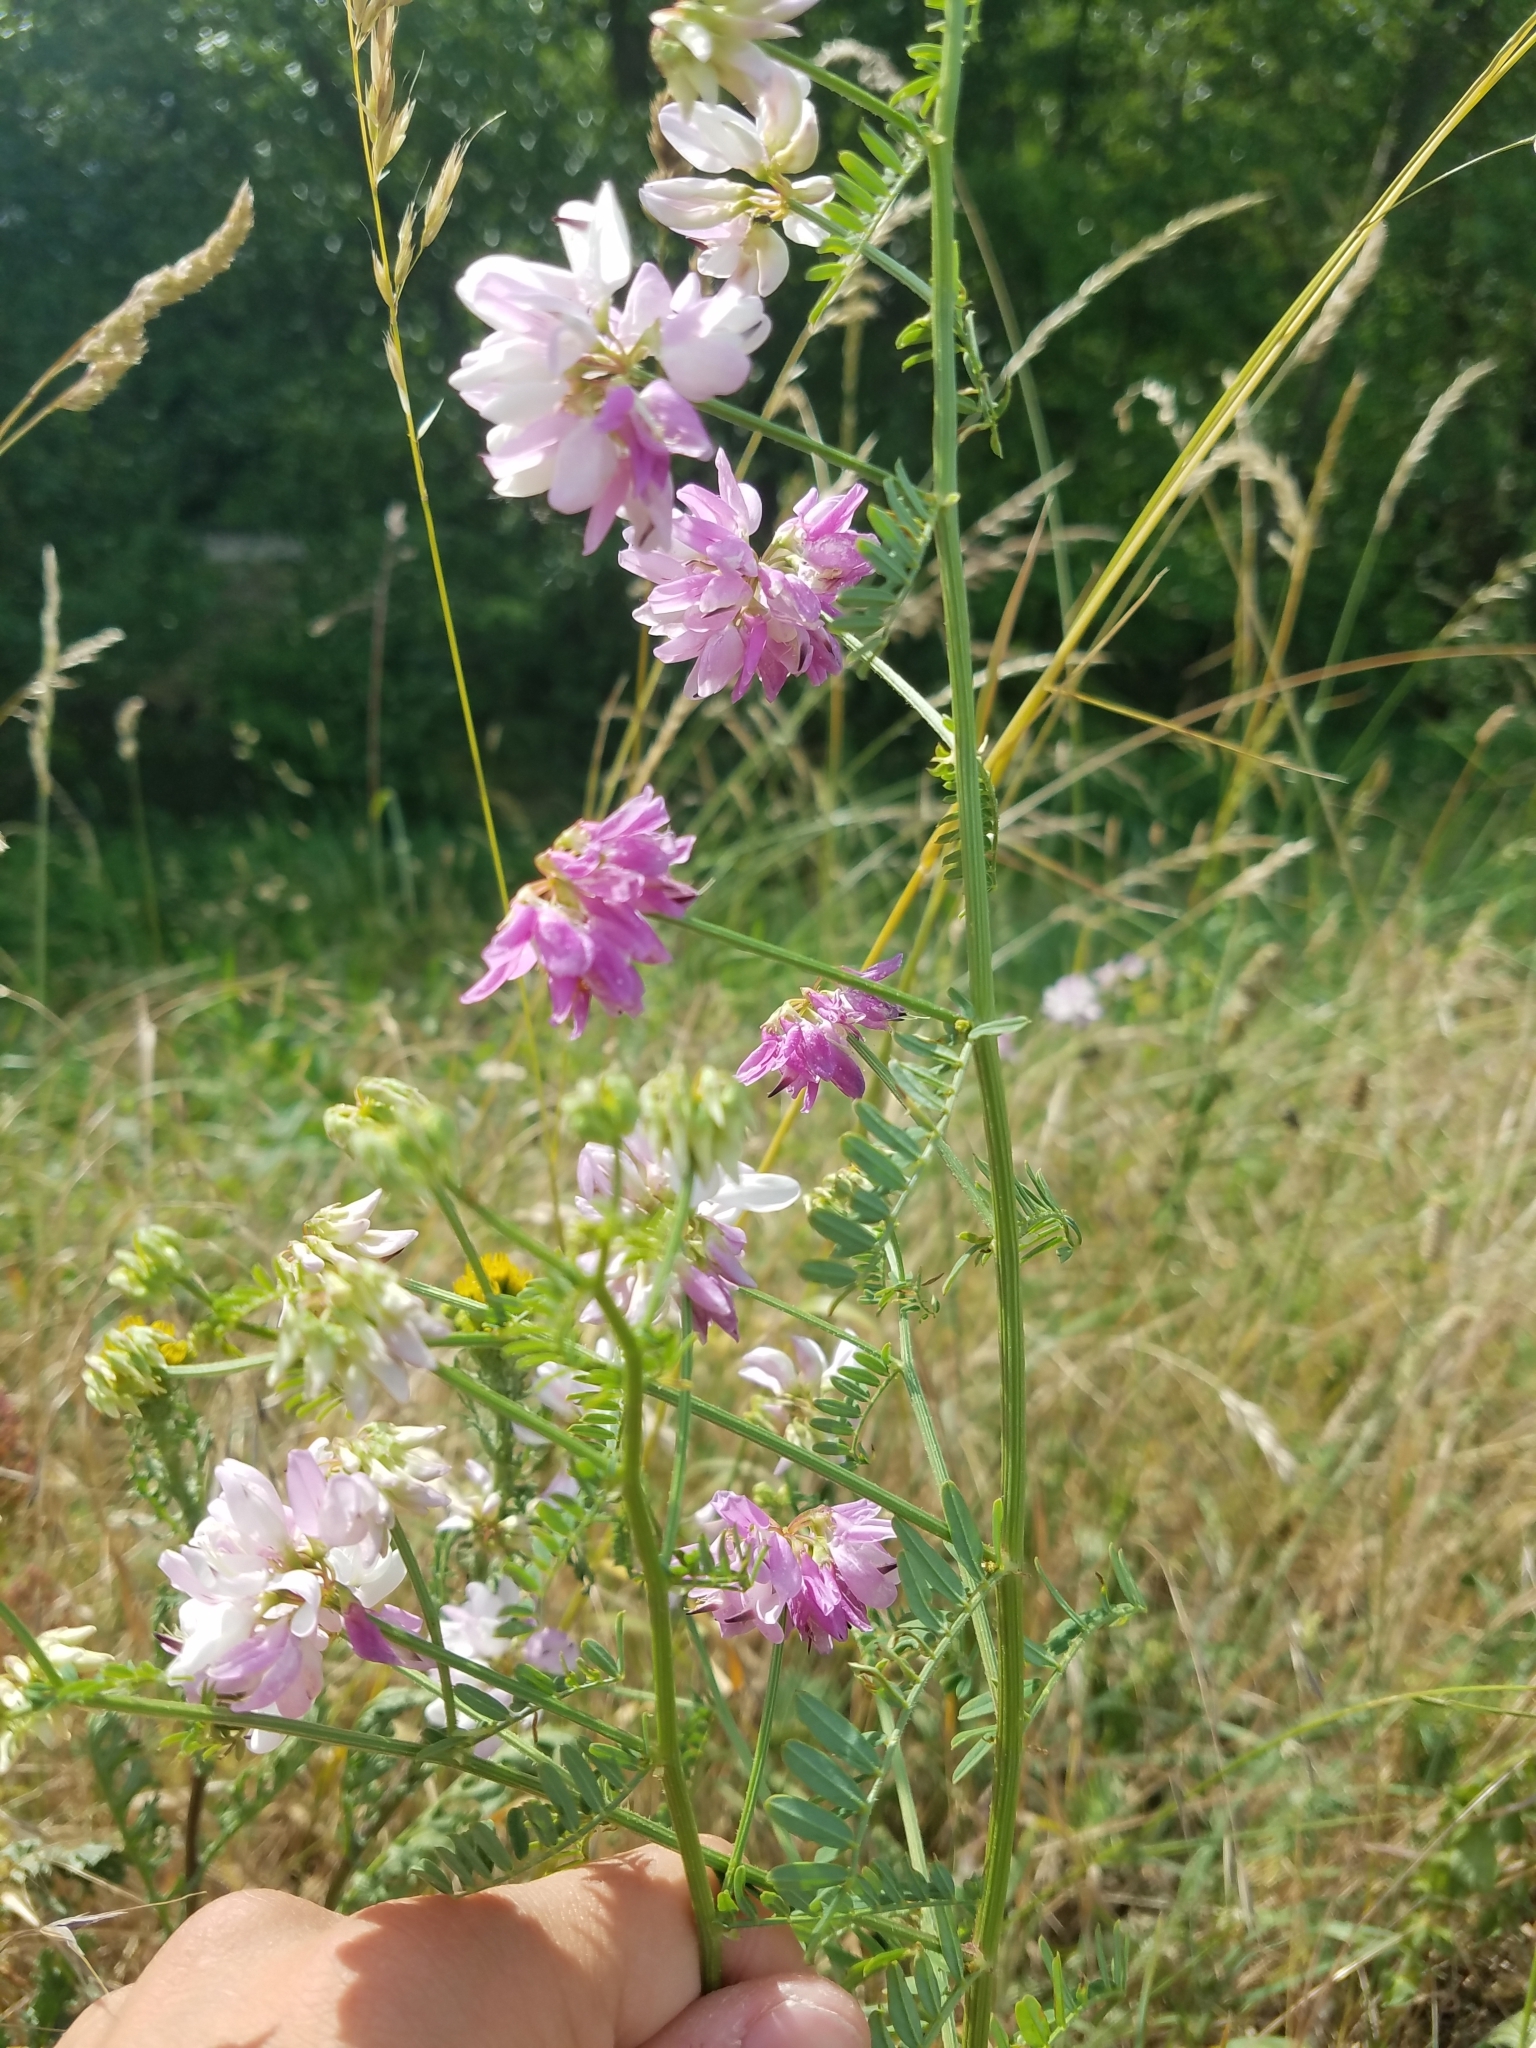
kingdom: Plantae
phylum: Tracheophyta
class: Magnoliopsida
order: Fabales
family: Fabaceae
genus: Coronilla
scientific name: Coronilla varia
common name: Crownvetch
